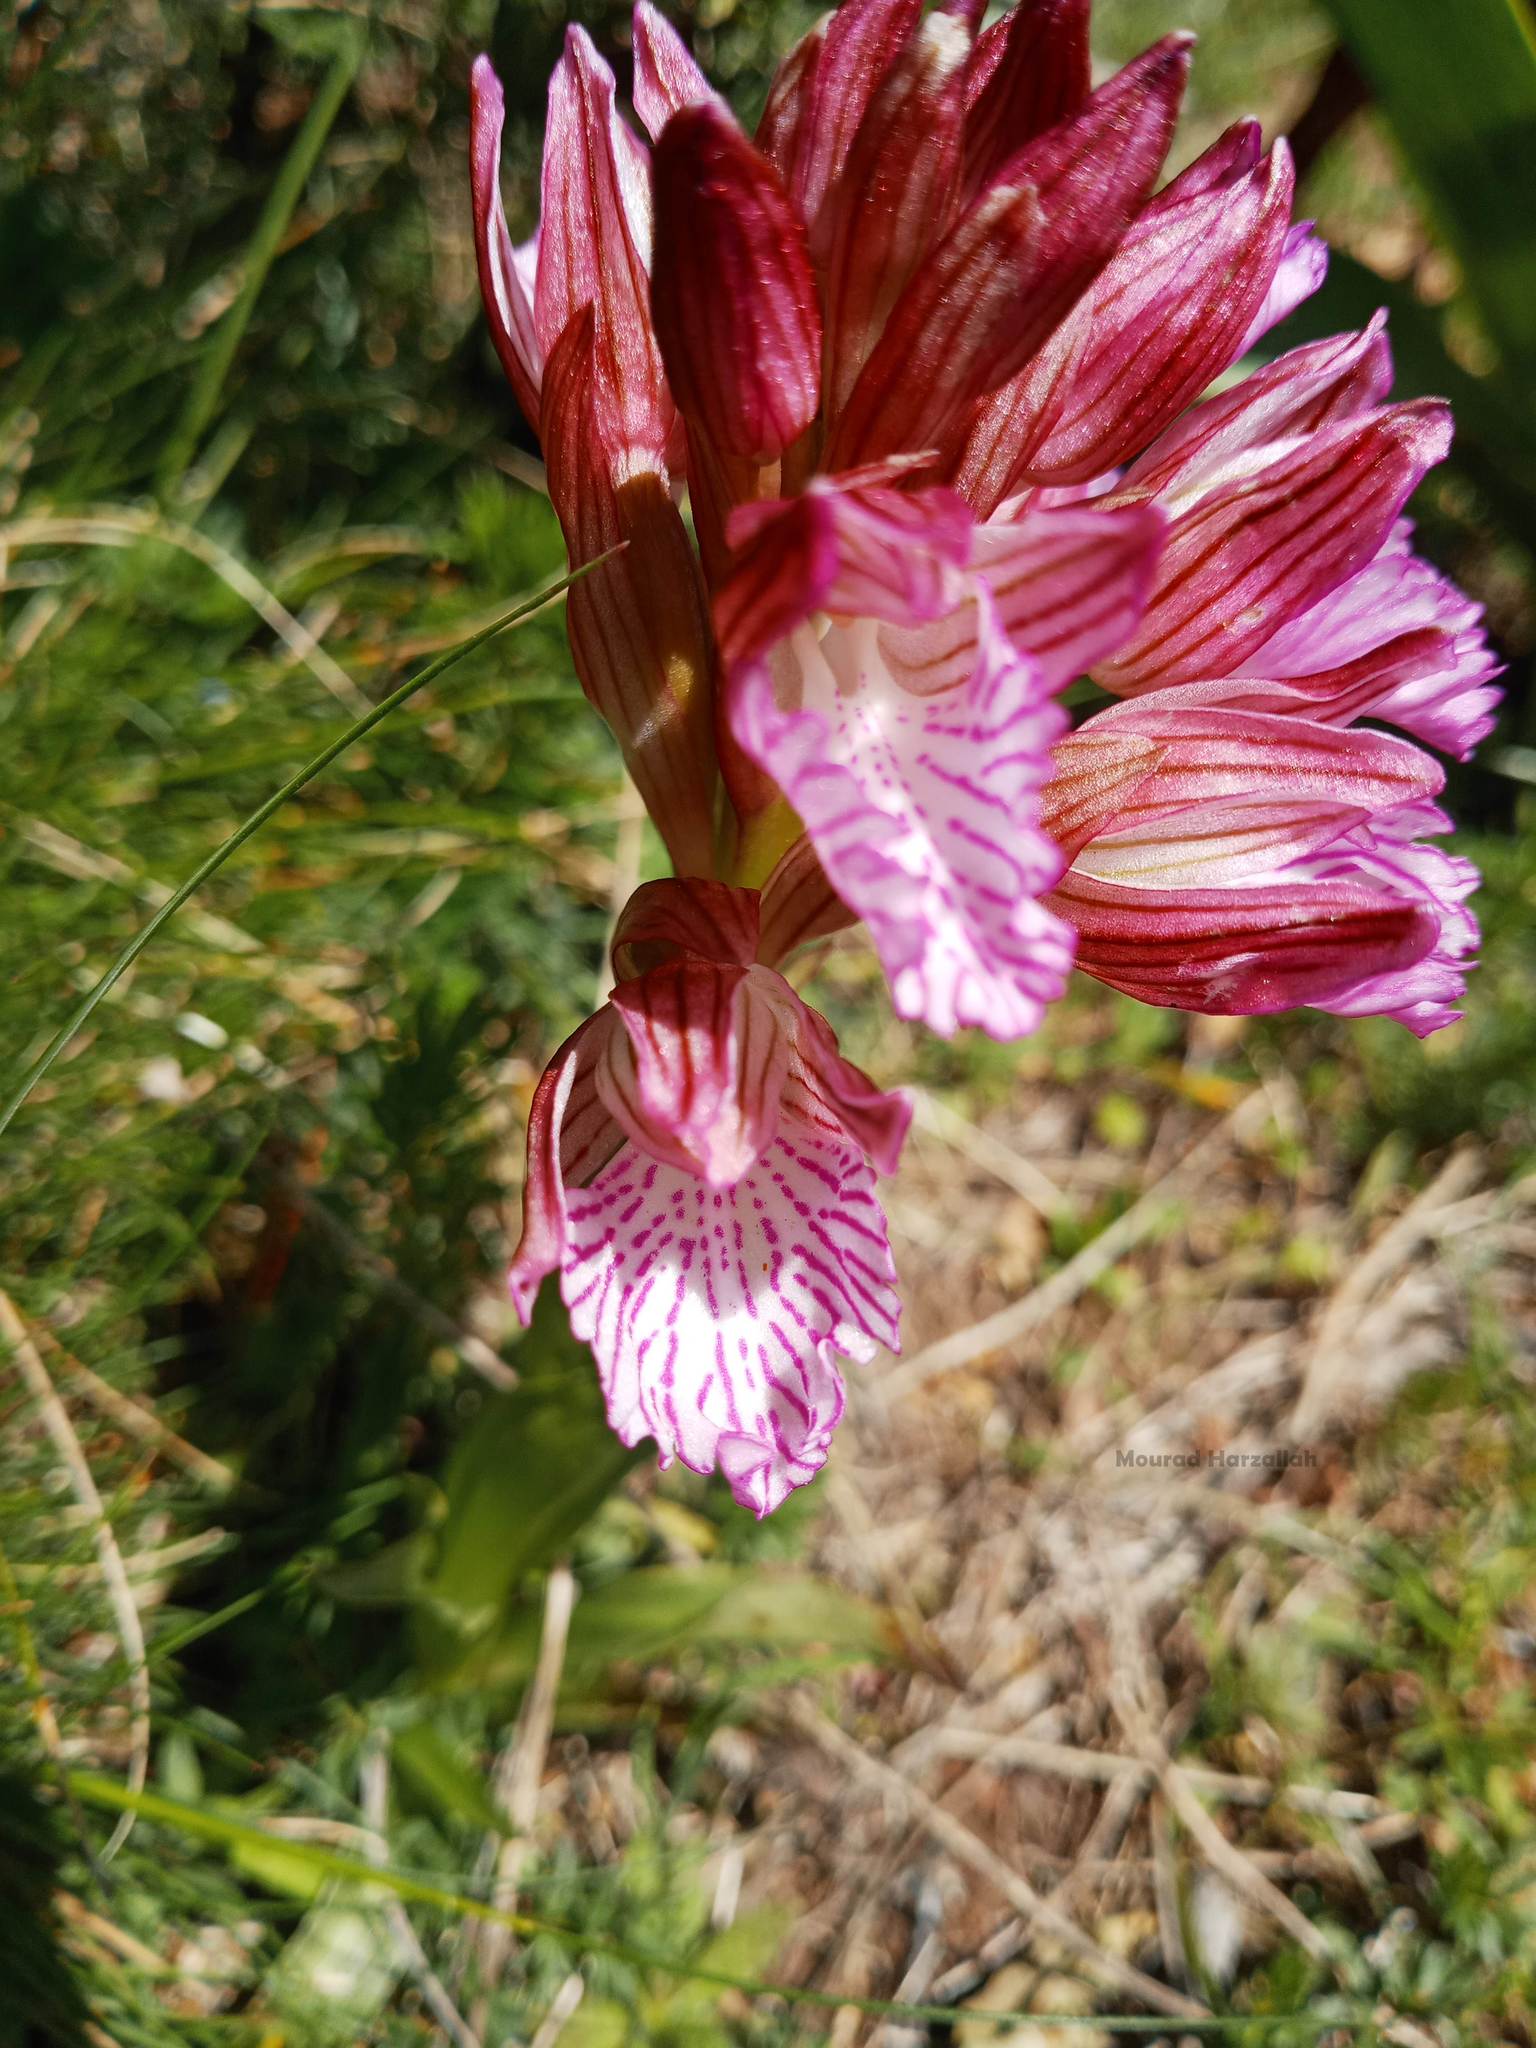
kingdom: Plantae
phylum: Tracheophyta
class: Liliopsida
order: Asparagales
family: Orchidaceae
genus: Anacamptis
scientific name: Anacamptis papilionacea
